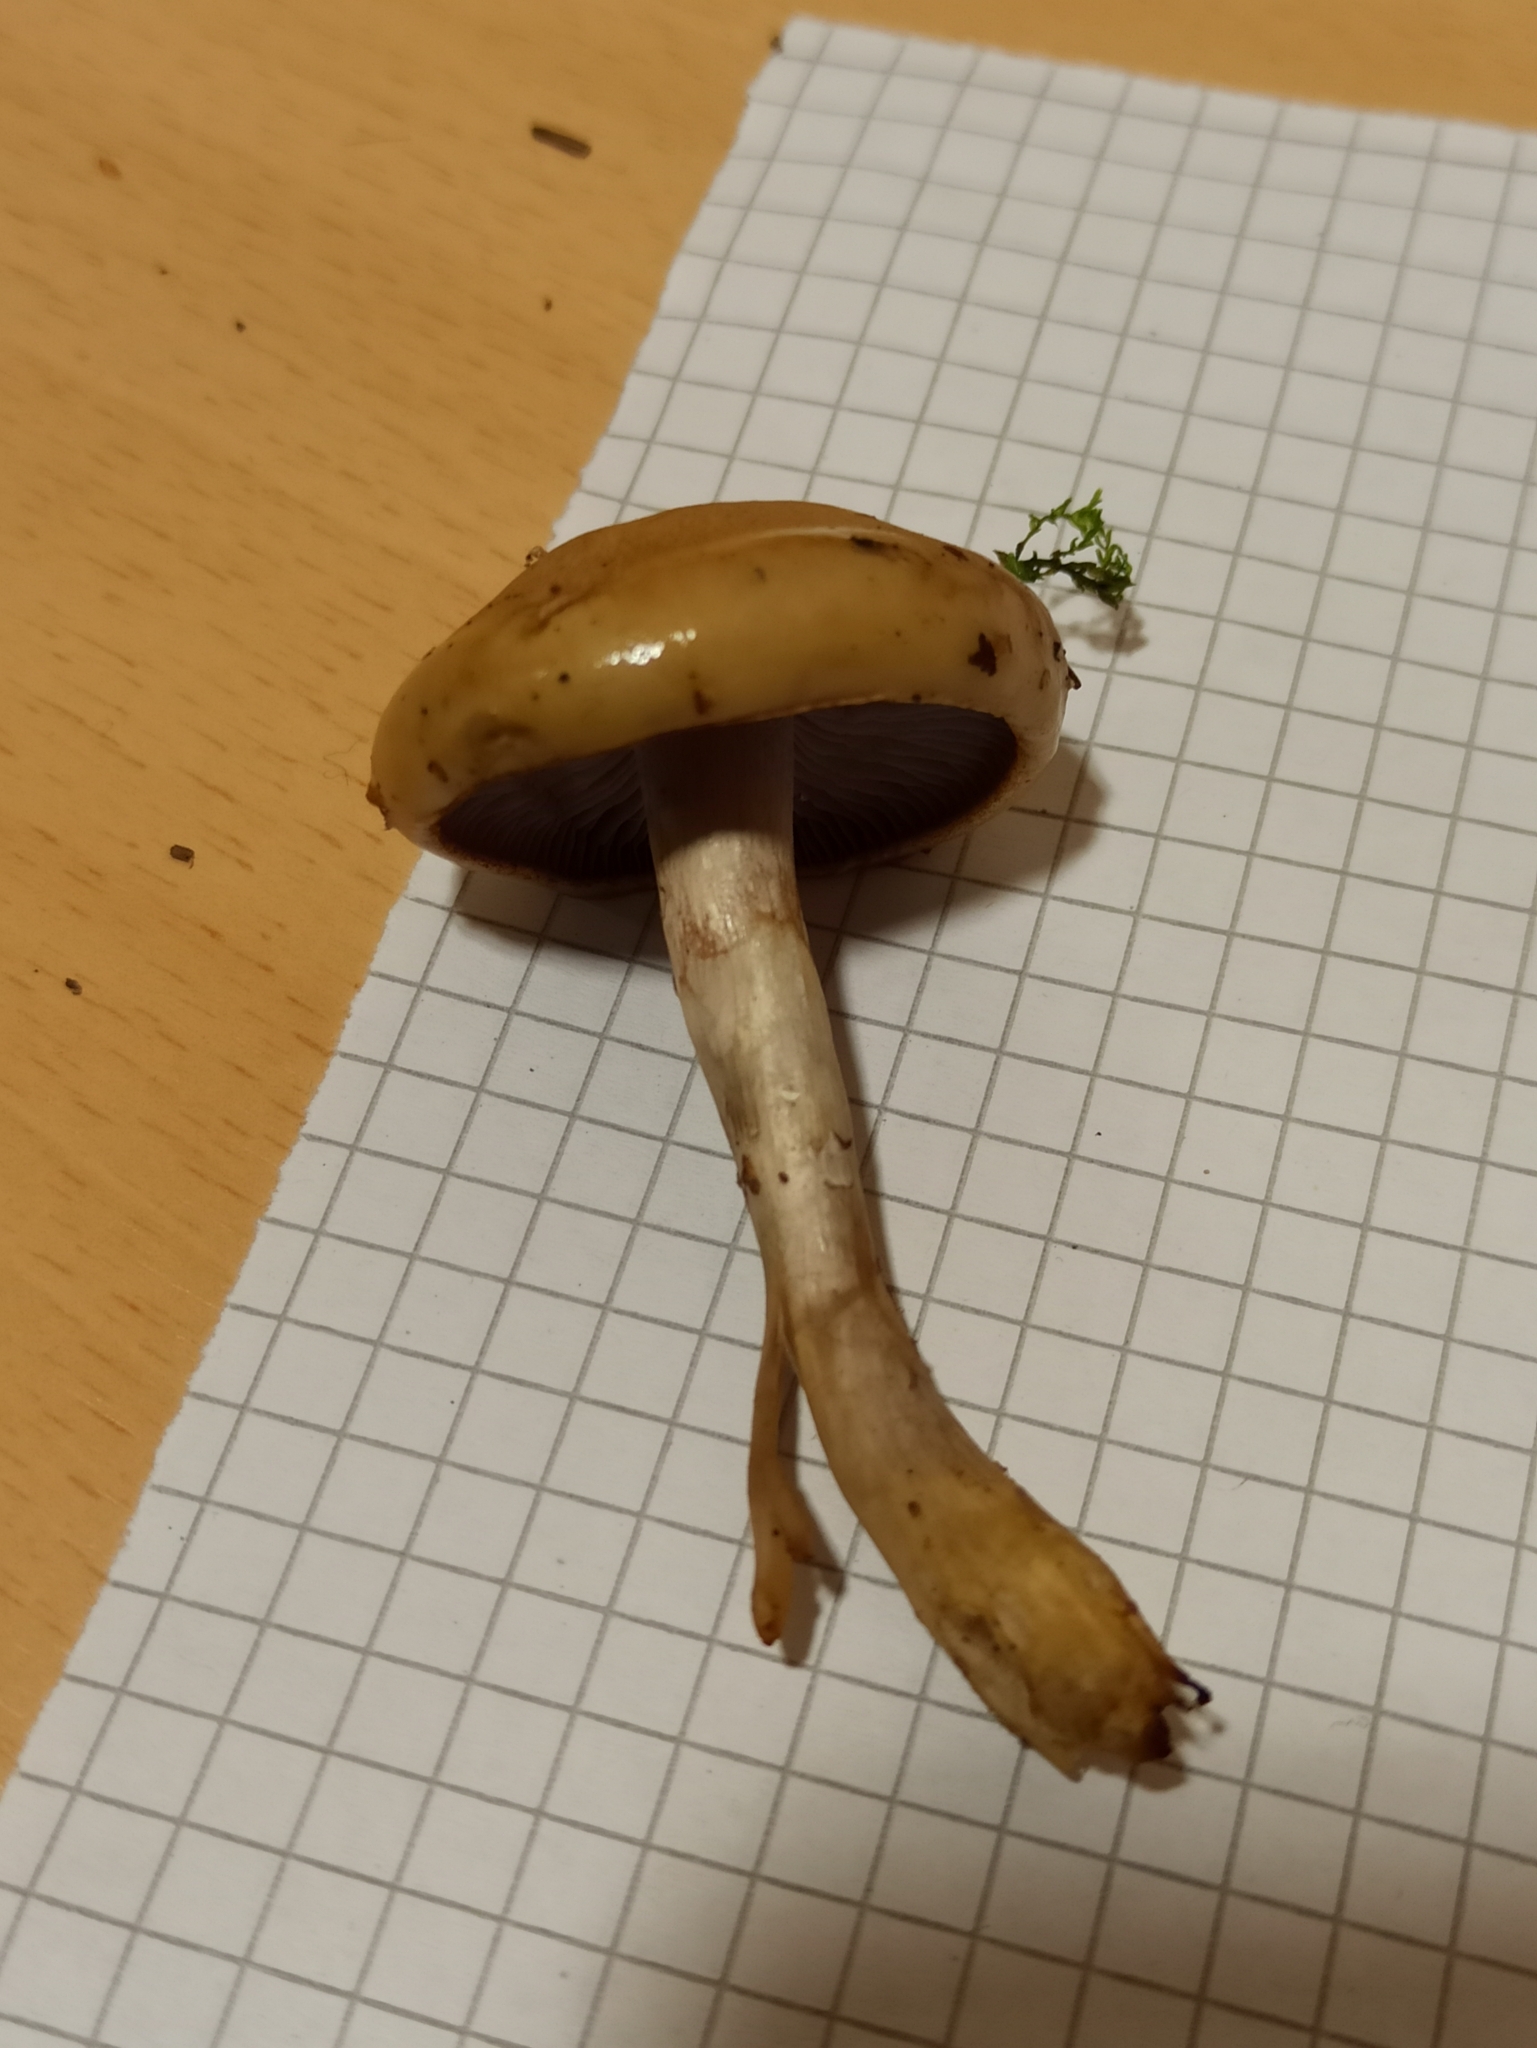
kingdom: Fungi
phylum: Basidiomycota
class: Agaricomycetes
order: Agaricales
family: Cortinariaceae
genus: Cortinarius
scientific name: Cortinarius delibutus
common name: Yellow webcap
